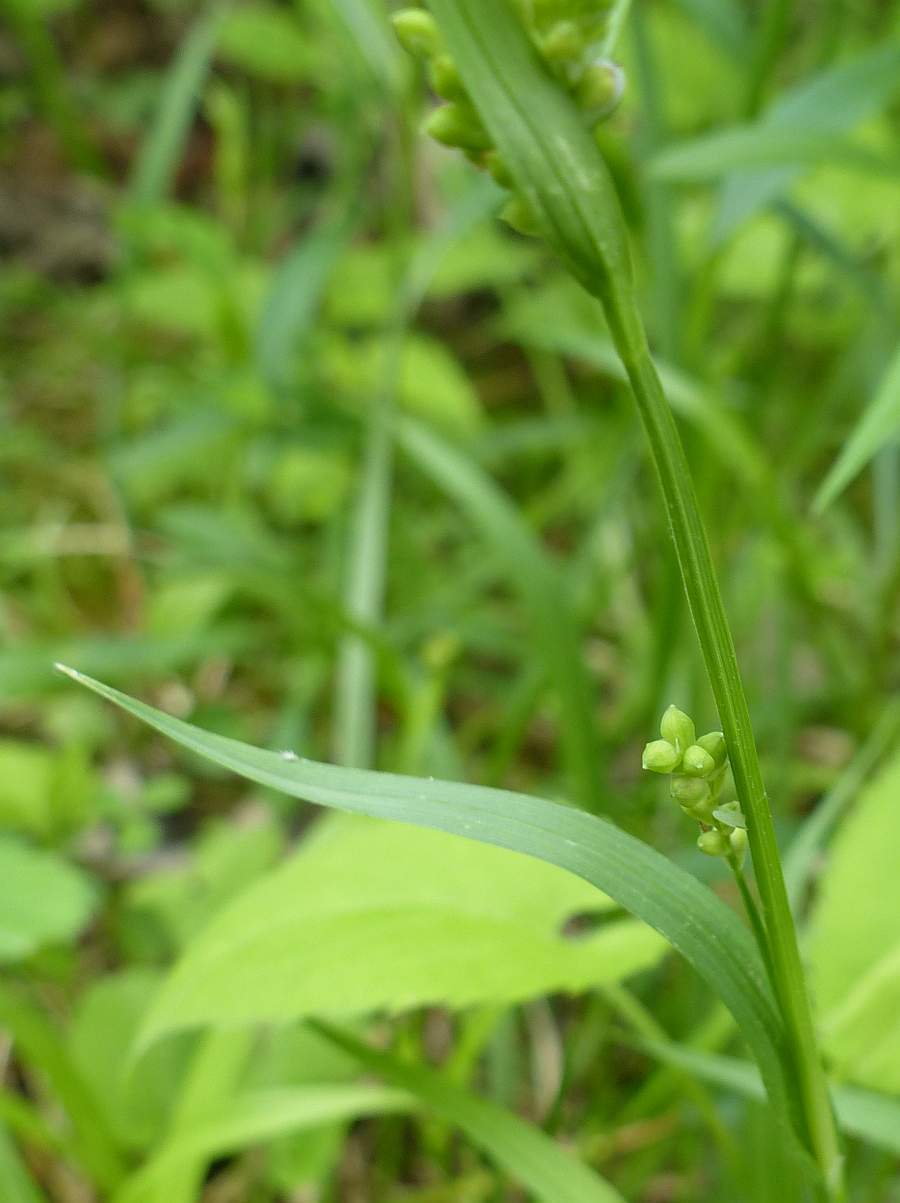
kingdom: Plantae
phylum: Tracheophyta
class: Liliopsida
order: Poales
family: Cyperaceae
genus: Carex
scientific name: Carex blanda
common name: Bland sedge
